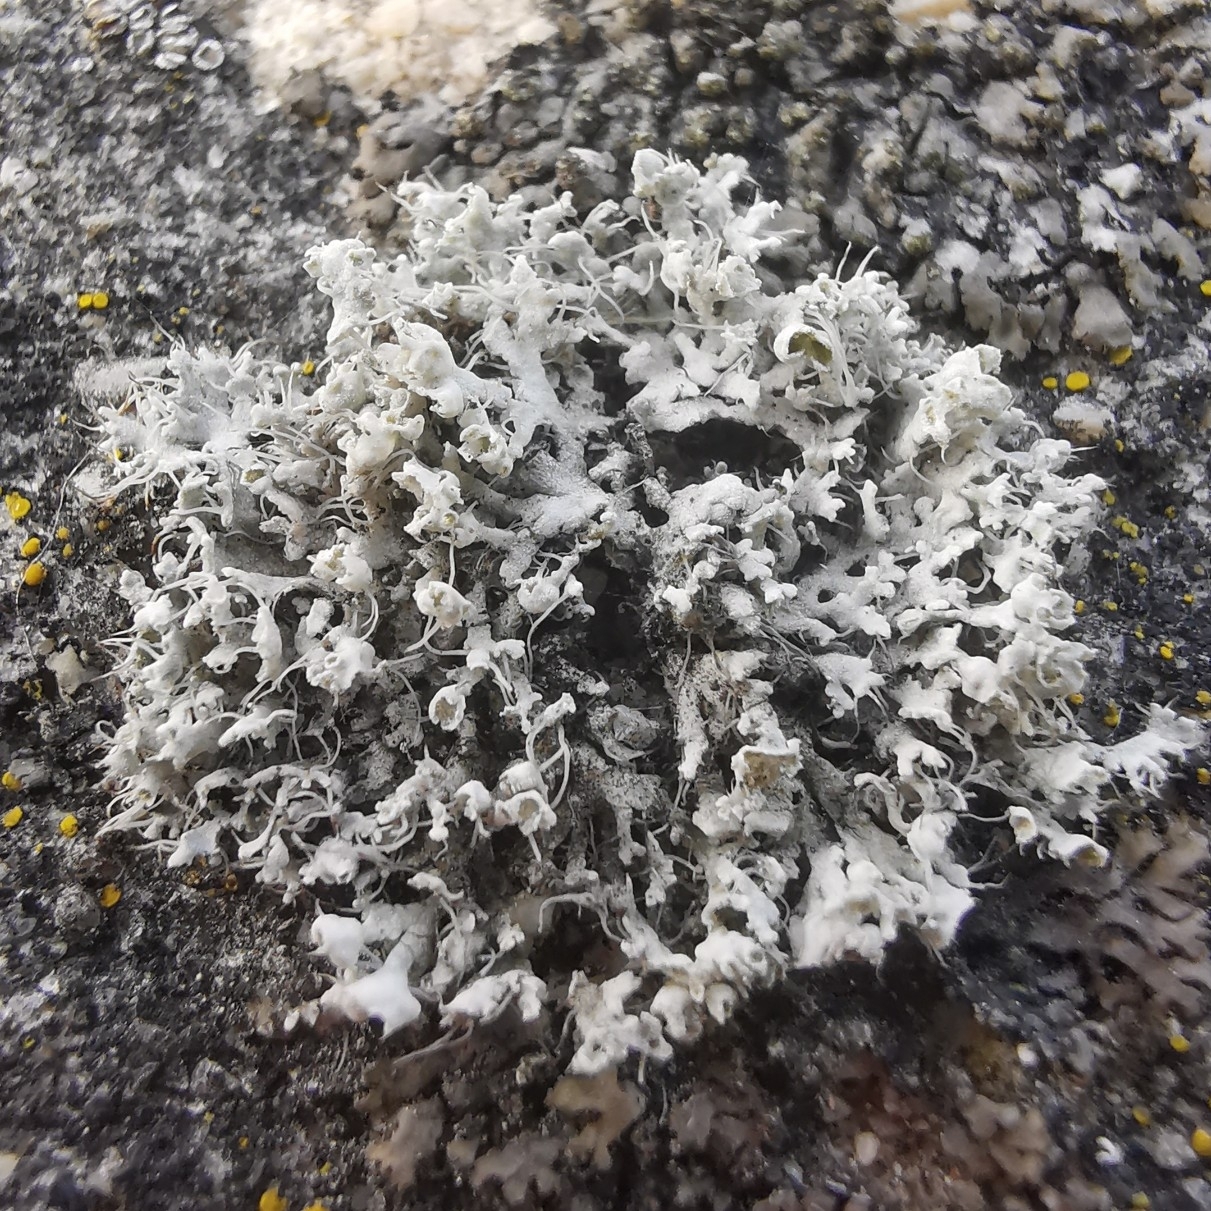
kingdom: Fungi
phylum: Ascomycota
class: Lecanoromycetes
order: Caliciales
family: Physciaceae
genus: Physcia
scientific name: Physcia adscendens
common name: Hooded rosette lichen
